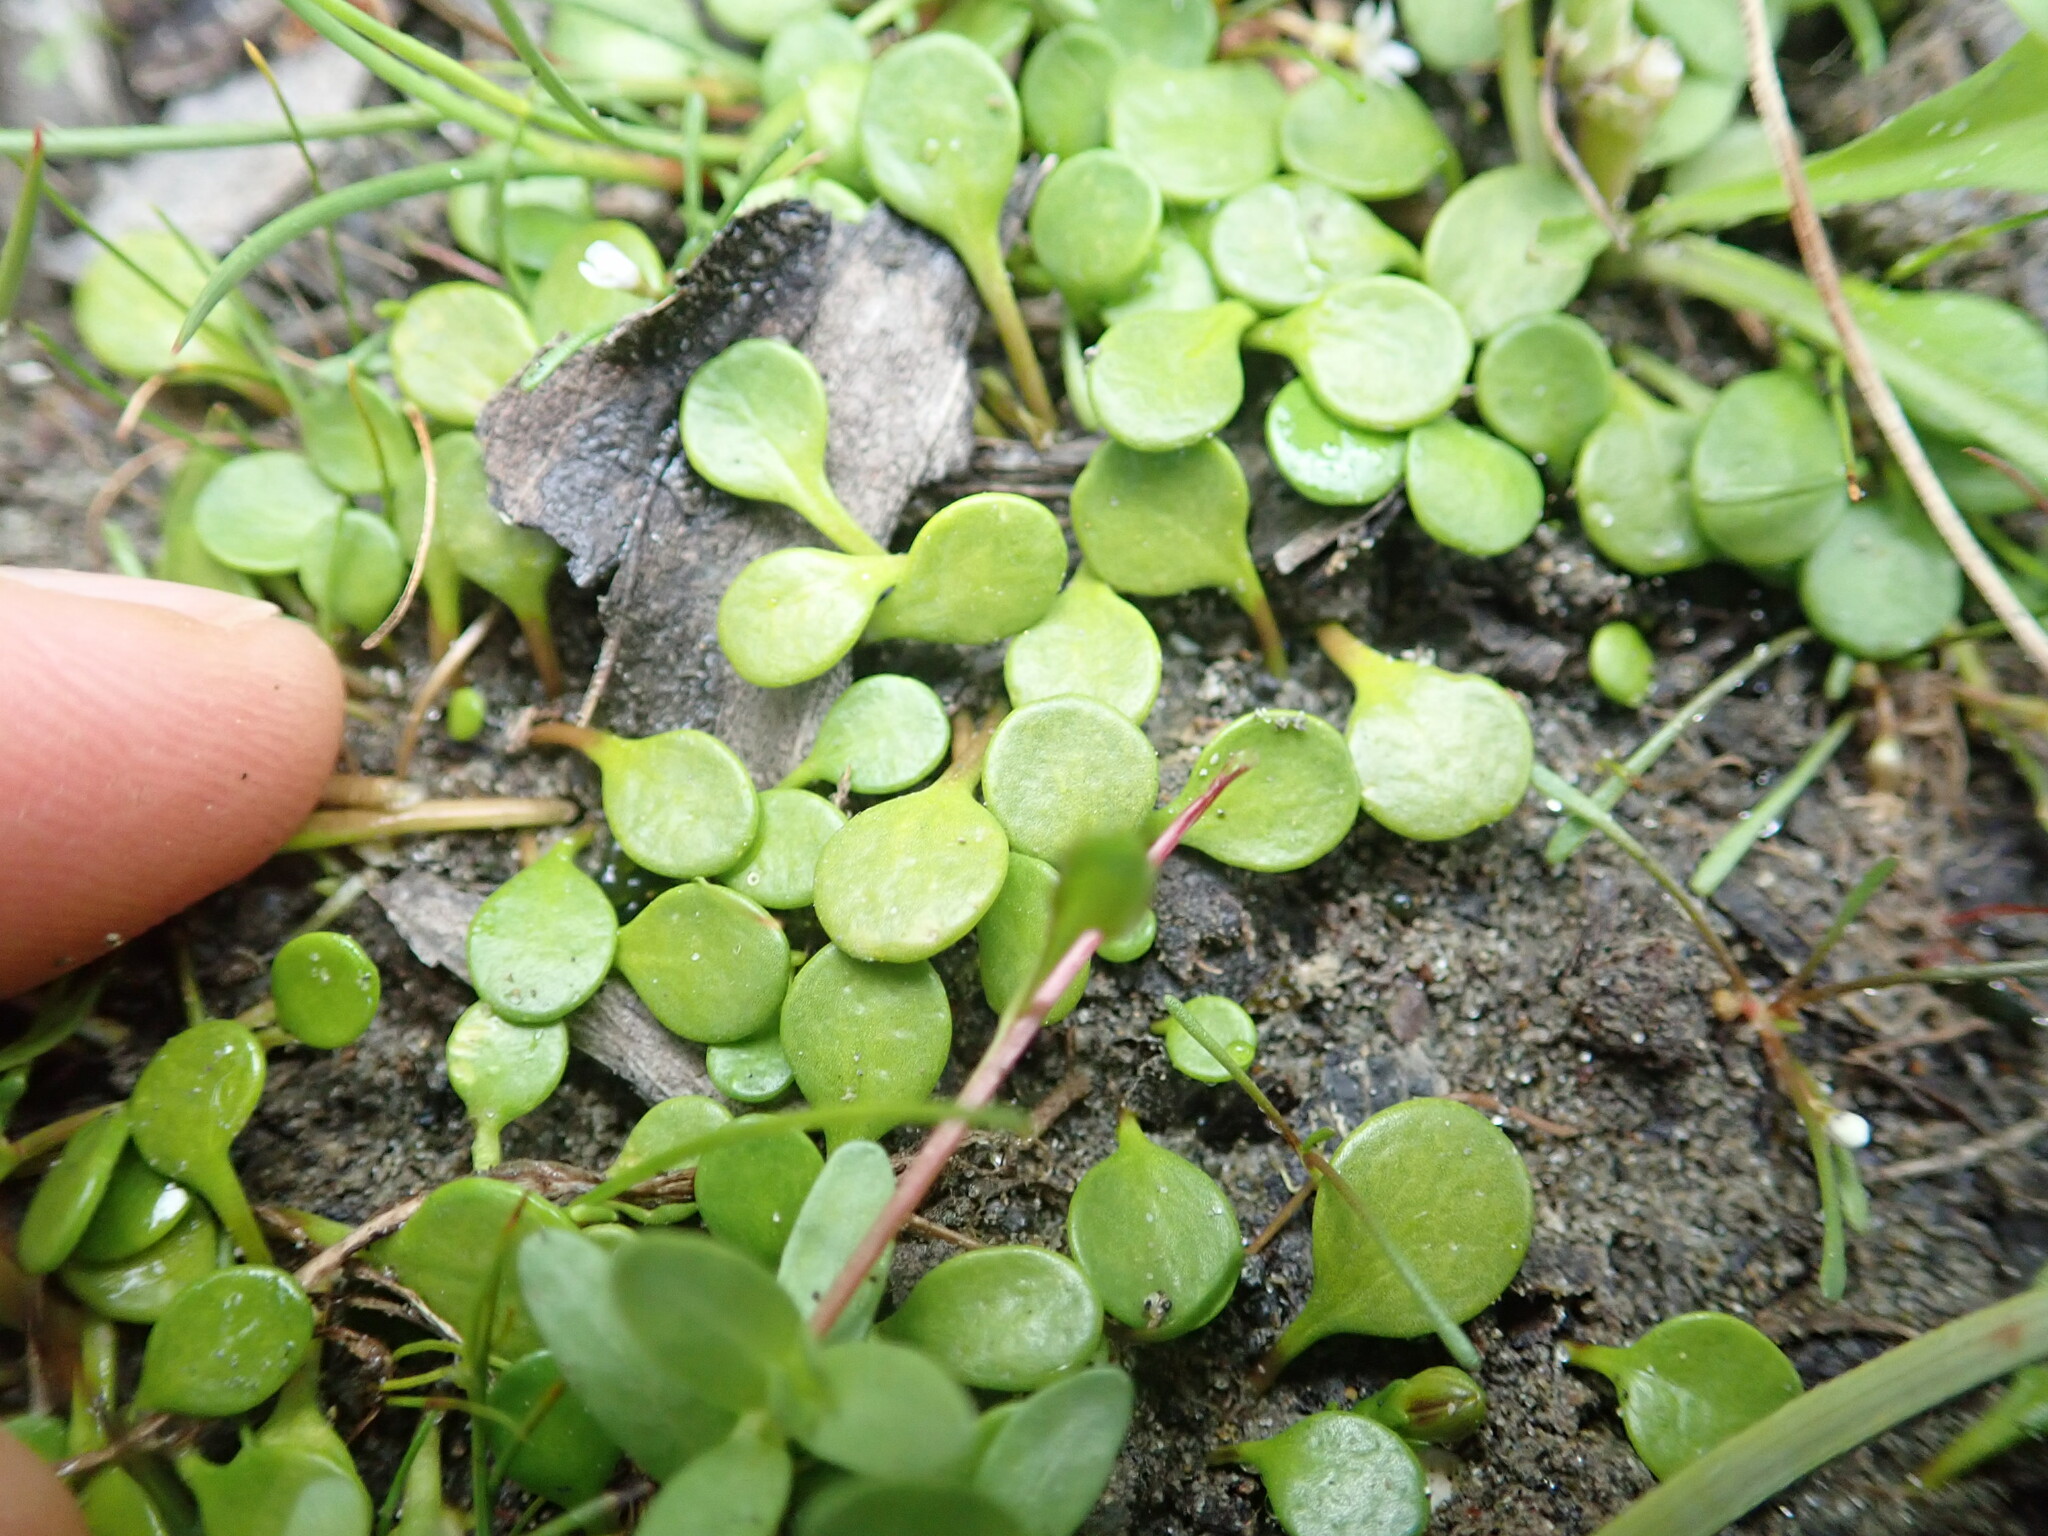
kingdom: Plantae
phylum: Tracheophyta
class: Magnoliopsida
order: Asterales
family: Goodeniaceae
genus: Goodenia
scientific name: Goodenia heenanii
